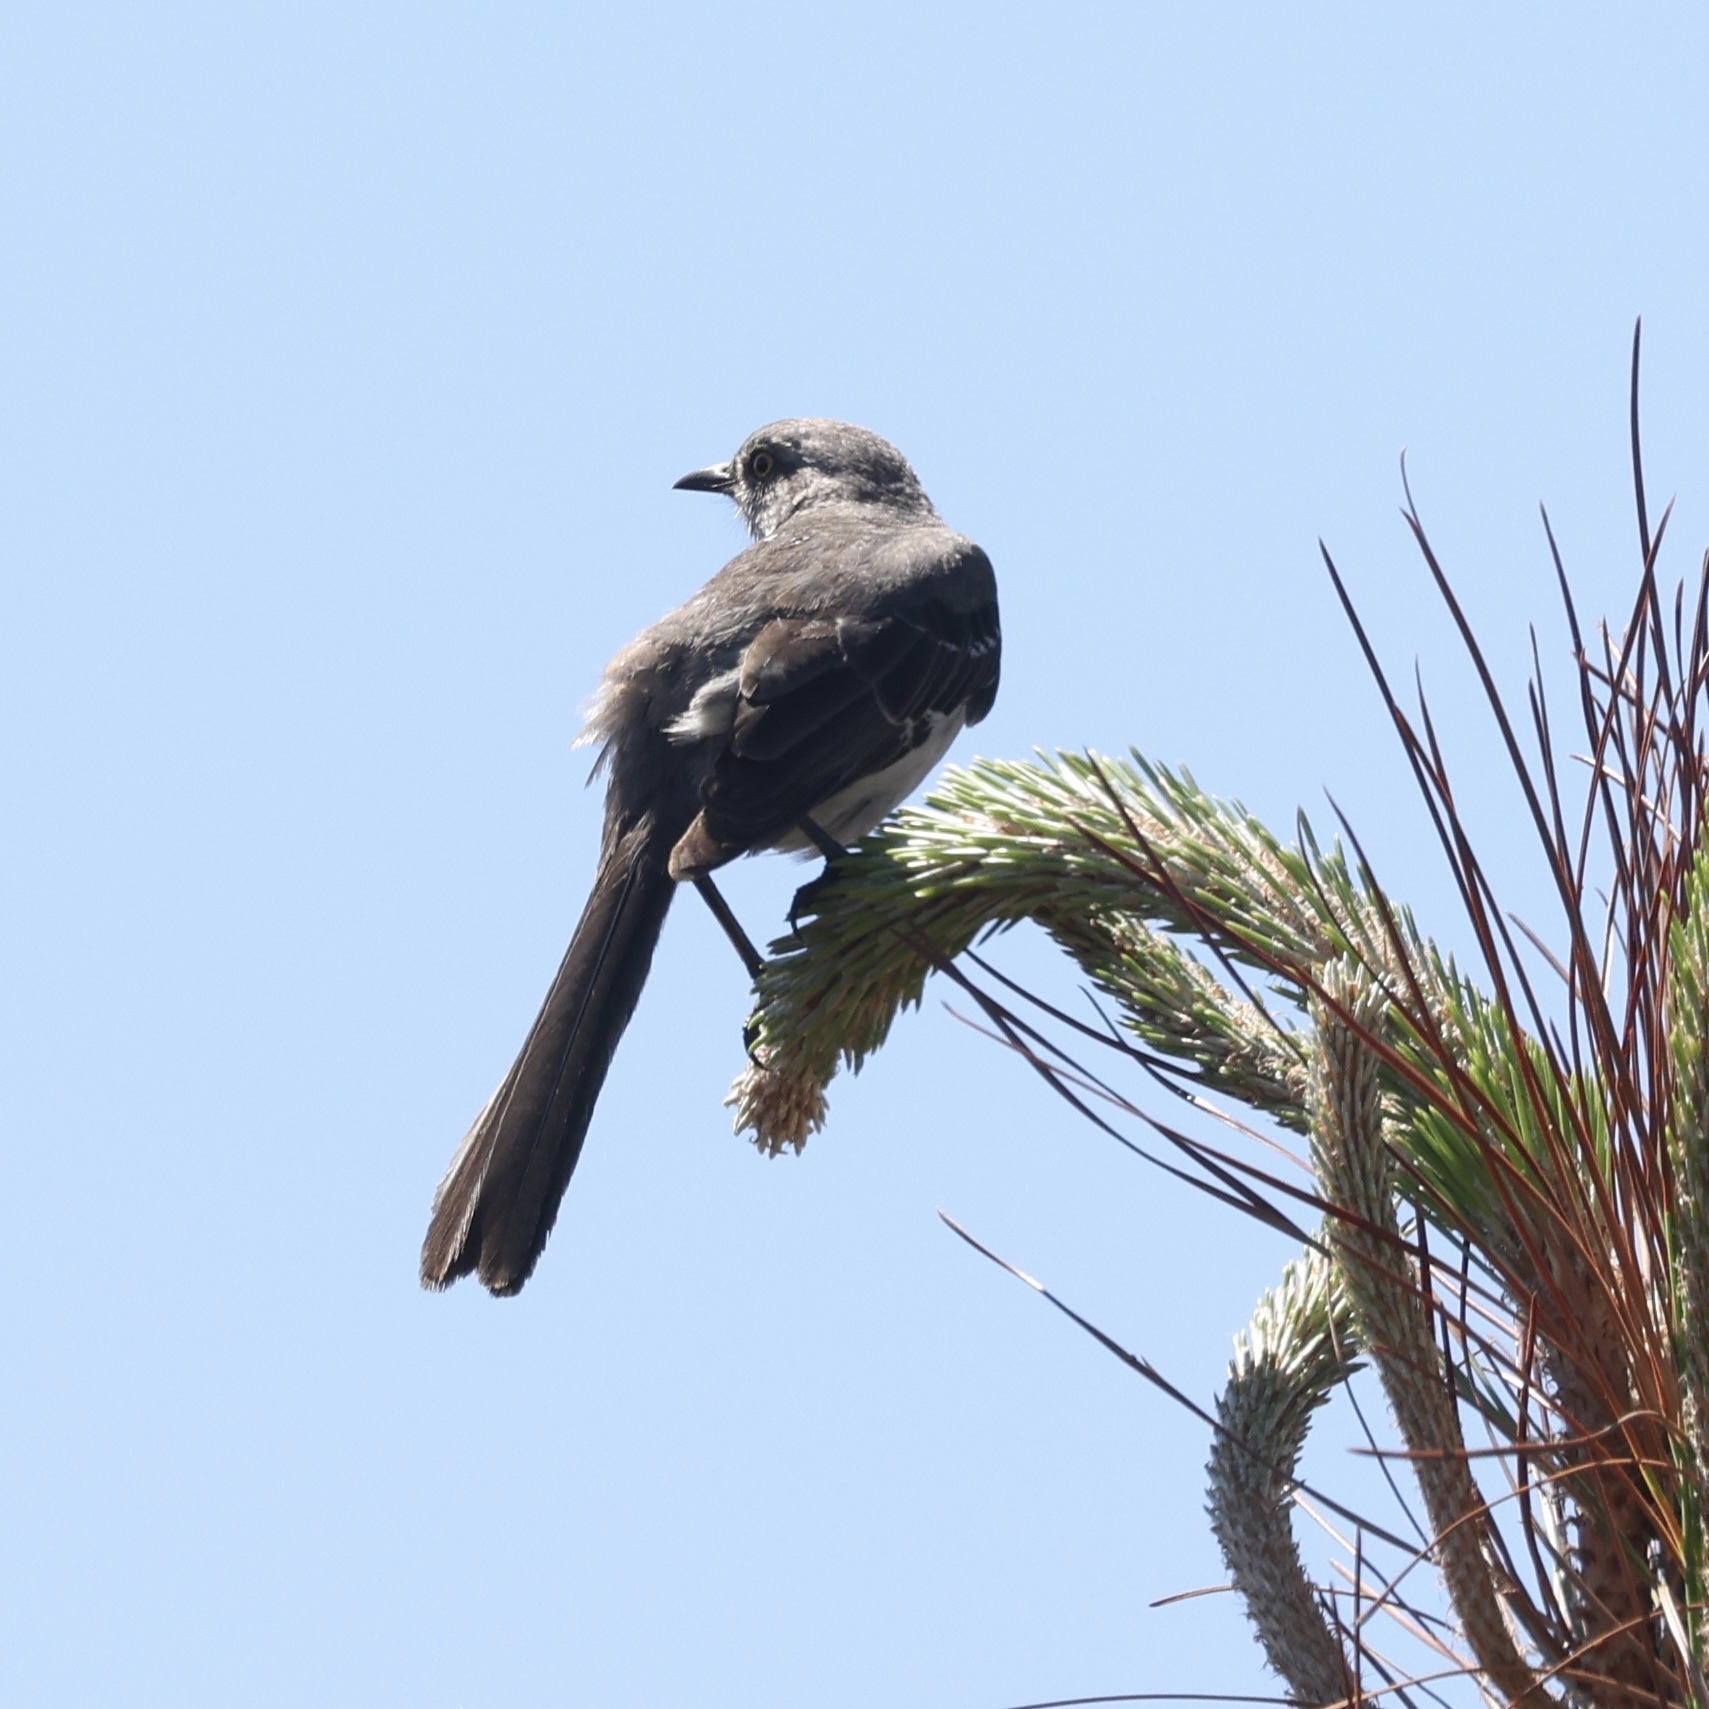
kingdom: Animalia
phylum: Chordata
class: Aves
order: Passeriformes
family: Mimidae
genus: Mimus
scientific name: Mimus polyglottos
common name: Northern mockingbird
